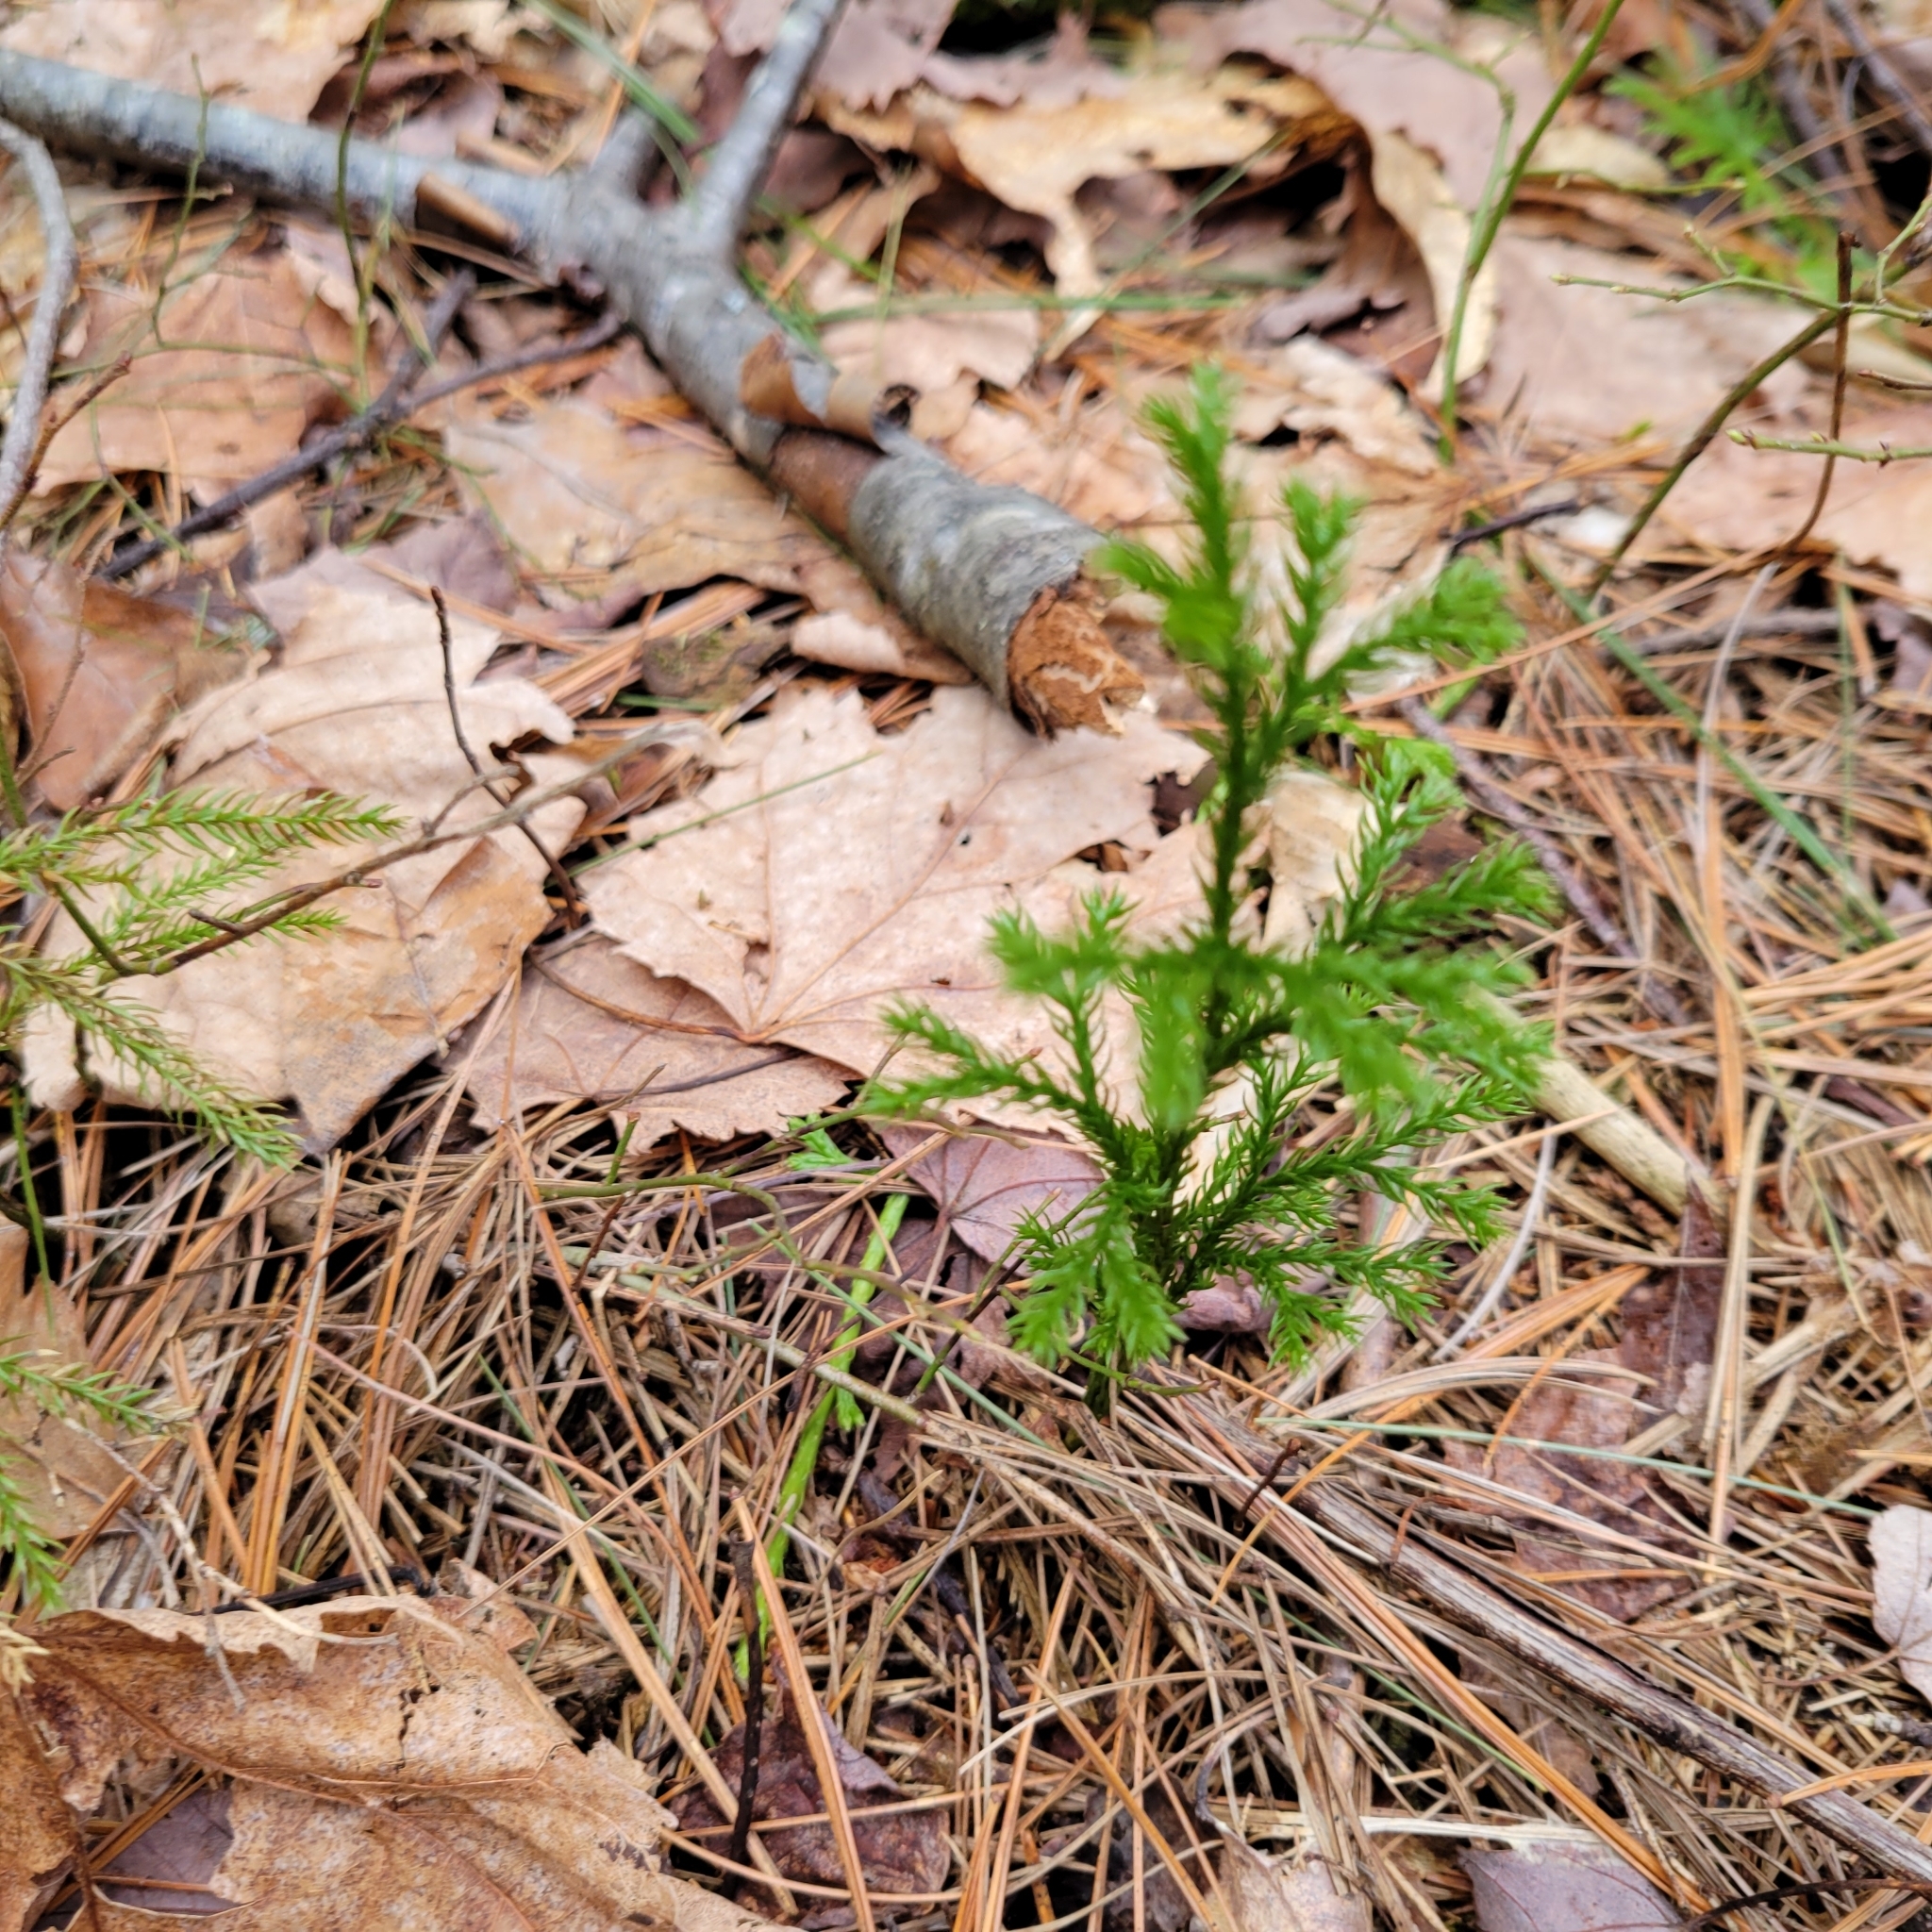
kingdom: Plantae
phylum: Tracheophyta
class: Lycopodiopsida
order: Lycopodiales
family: Lycopodiaceae
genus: Dendrolycopodium
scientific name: Dendrolycopodium hickeyi
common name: Hickey's clubmoss
